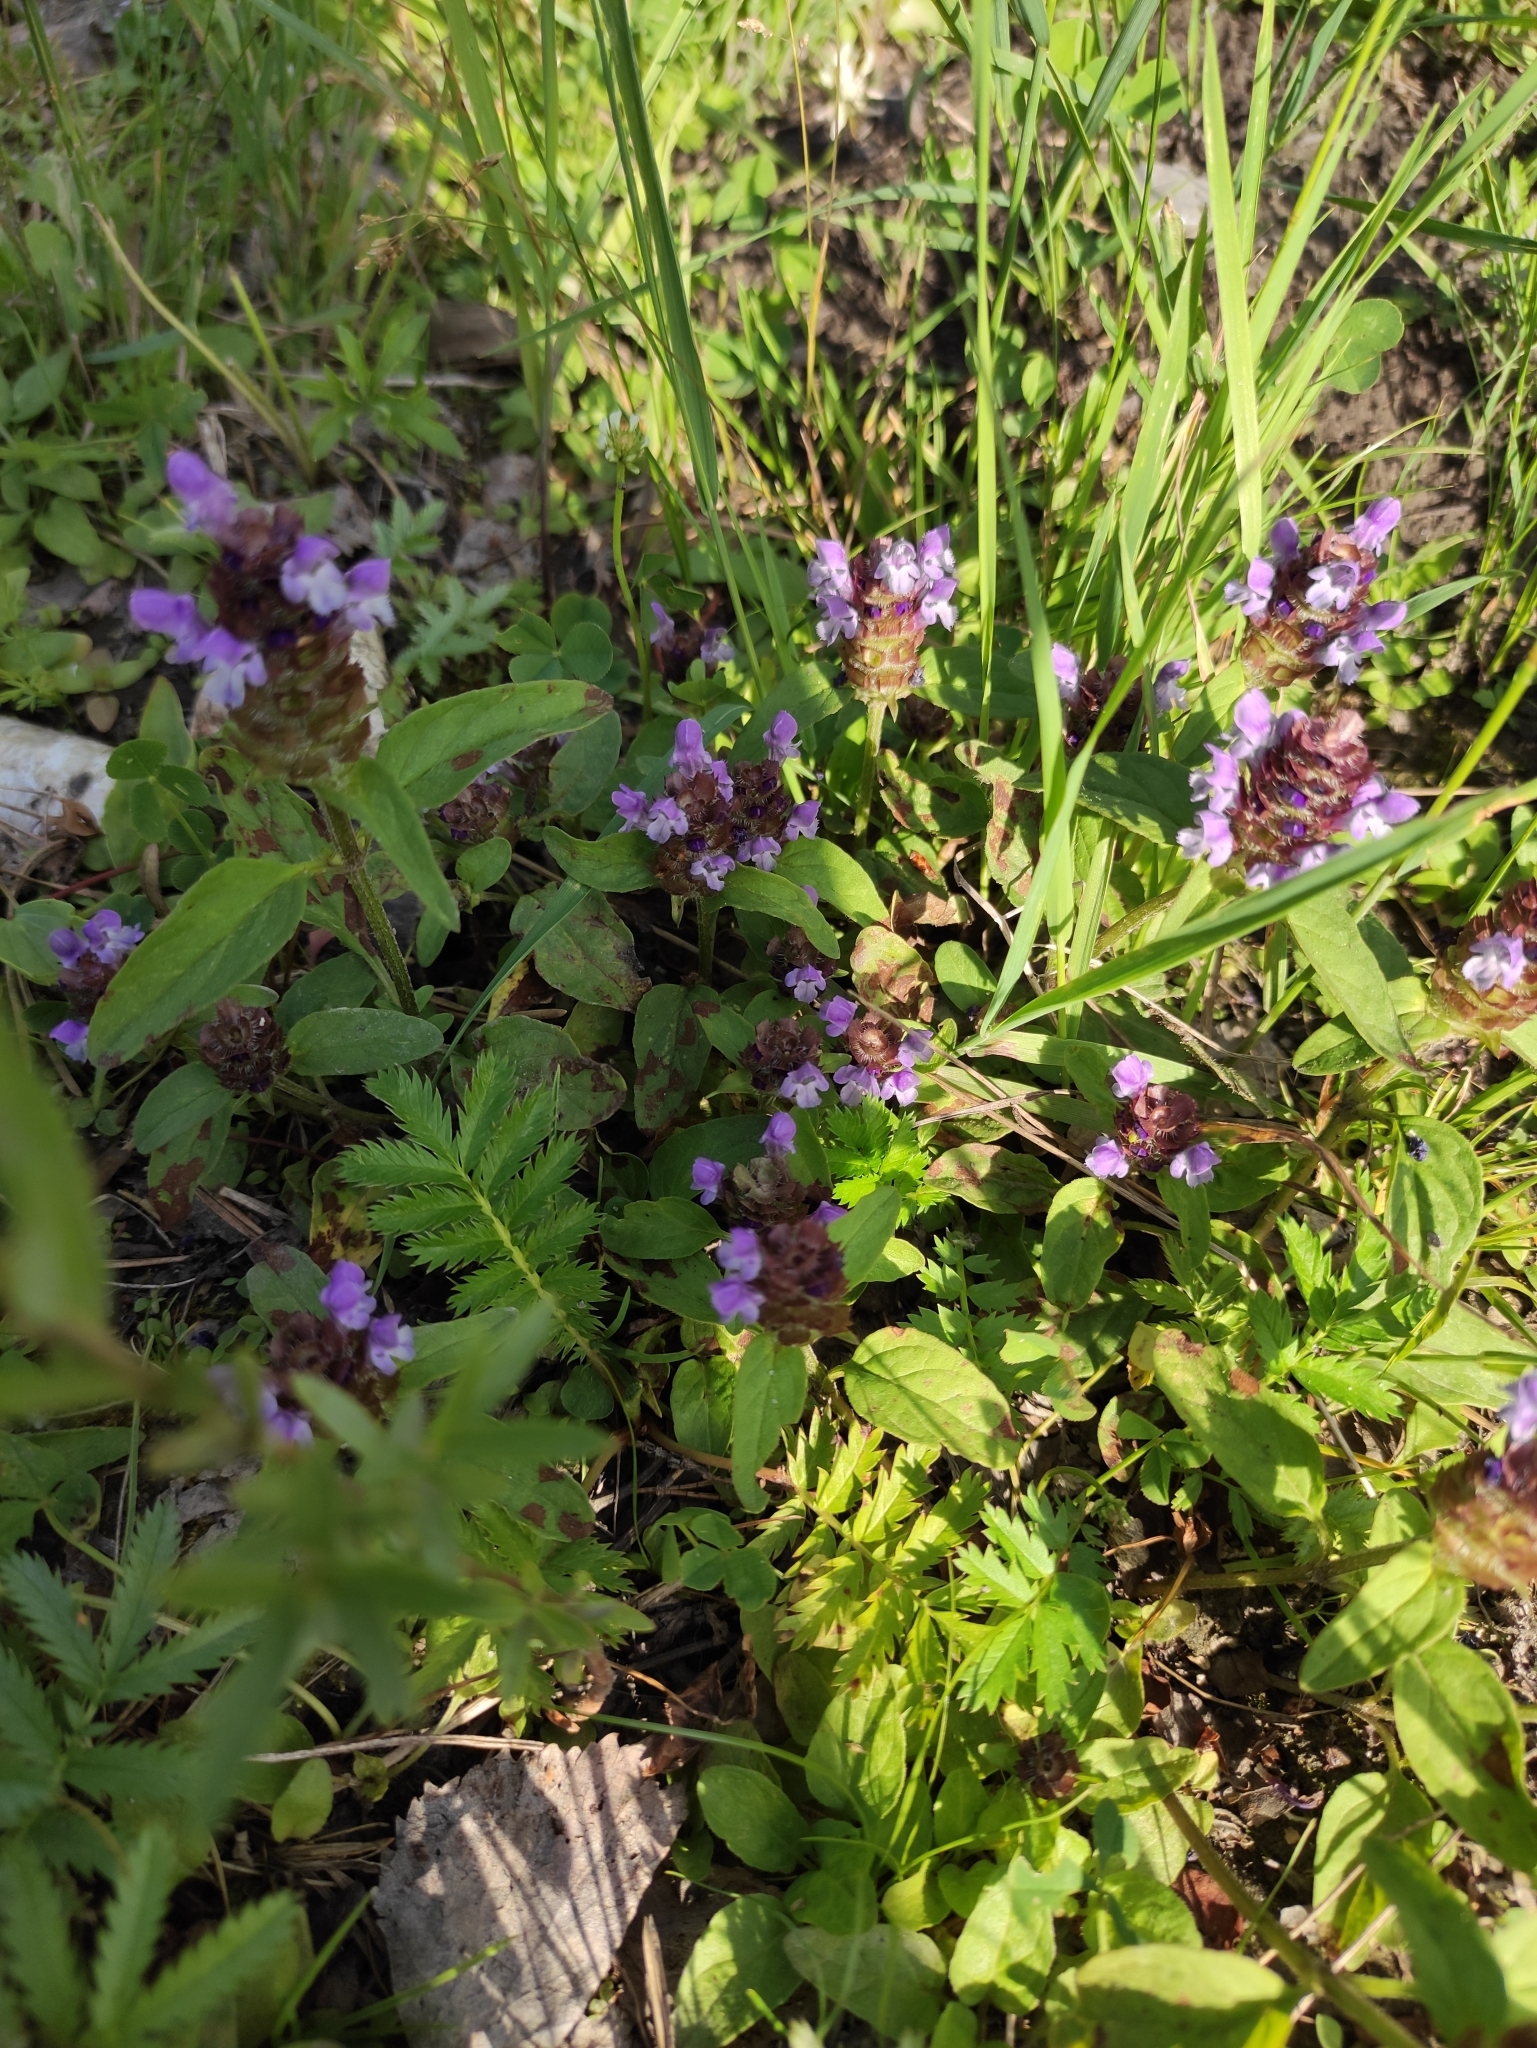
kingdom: Plantae
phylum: Tracheophyta
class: Magnoliopsida
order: Lamiales
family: Lamiaceae
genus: Prunella
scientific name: Prunella vulgaris
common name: Heal-all
